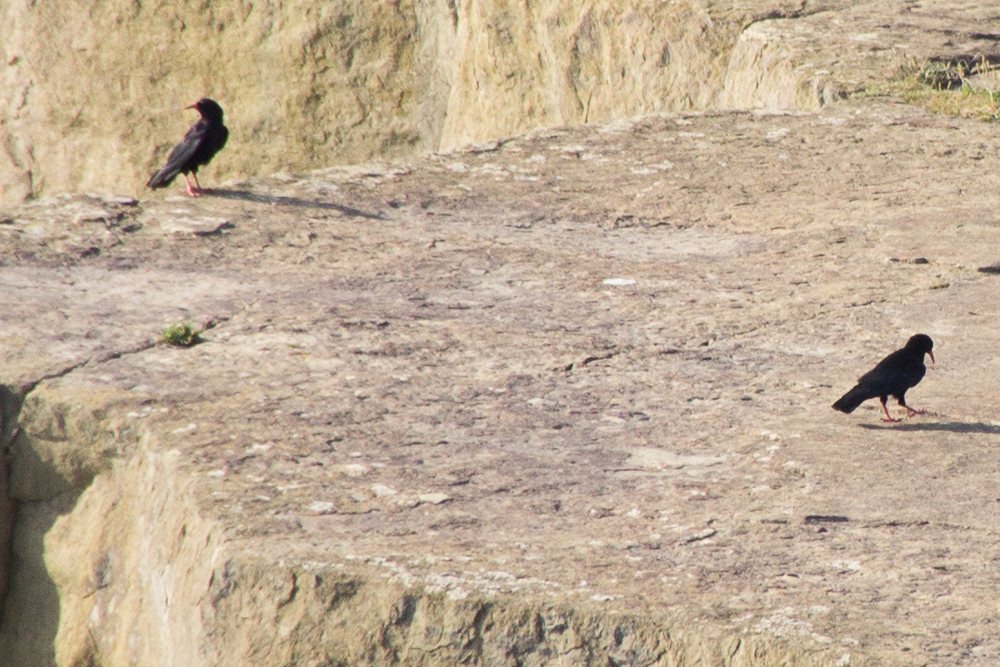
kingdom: Animalia
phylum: Chordata
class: Aves
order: Passeriformes
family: Corvidae
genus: Pyrrhocorax
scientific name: Pyrrhocorax pyrrhocorax
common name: Red-billed chough
